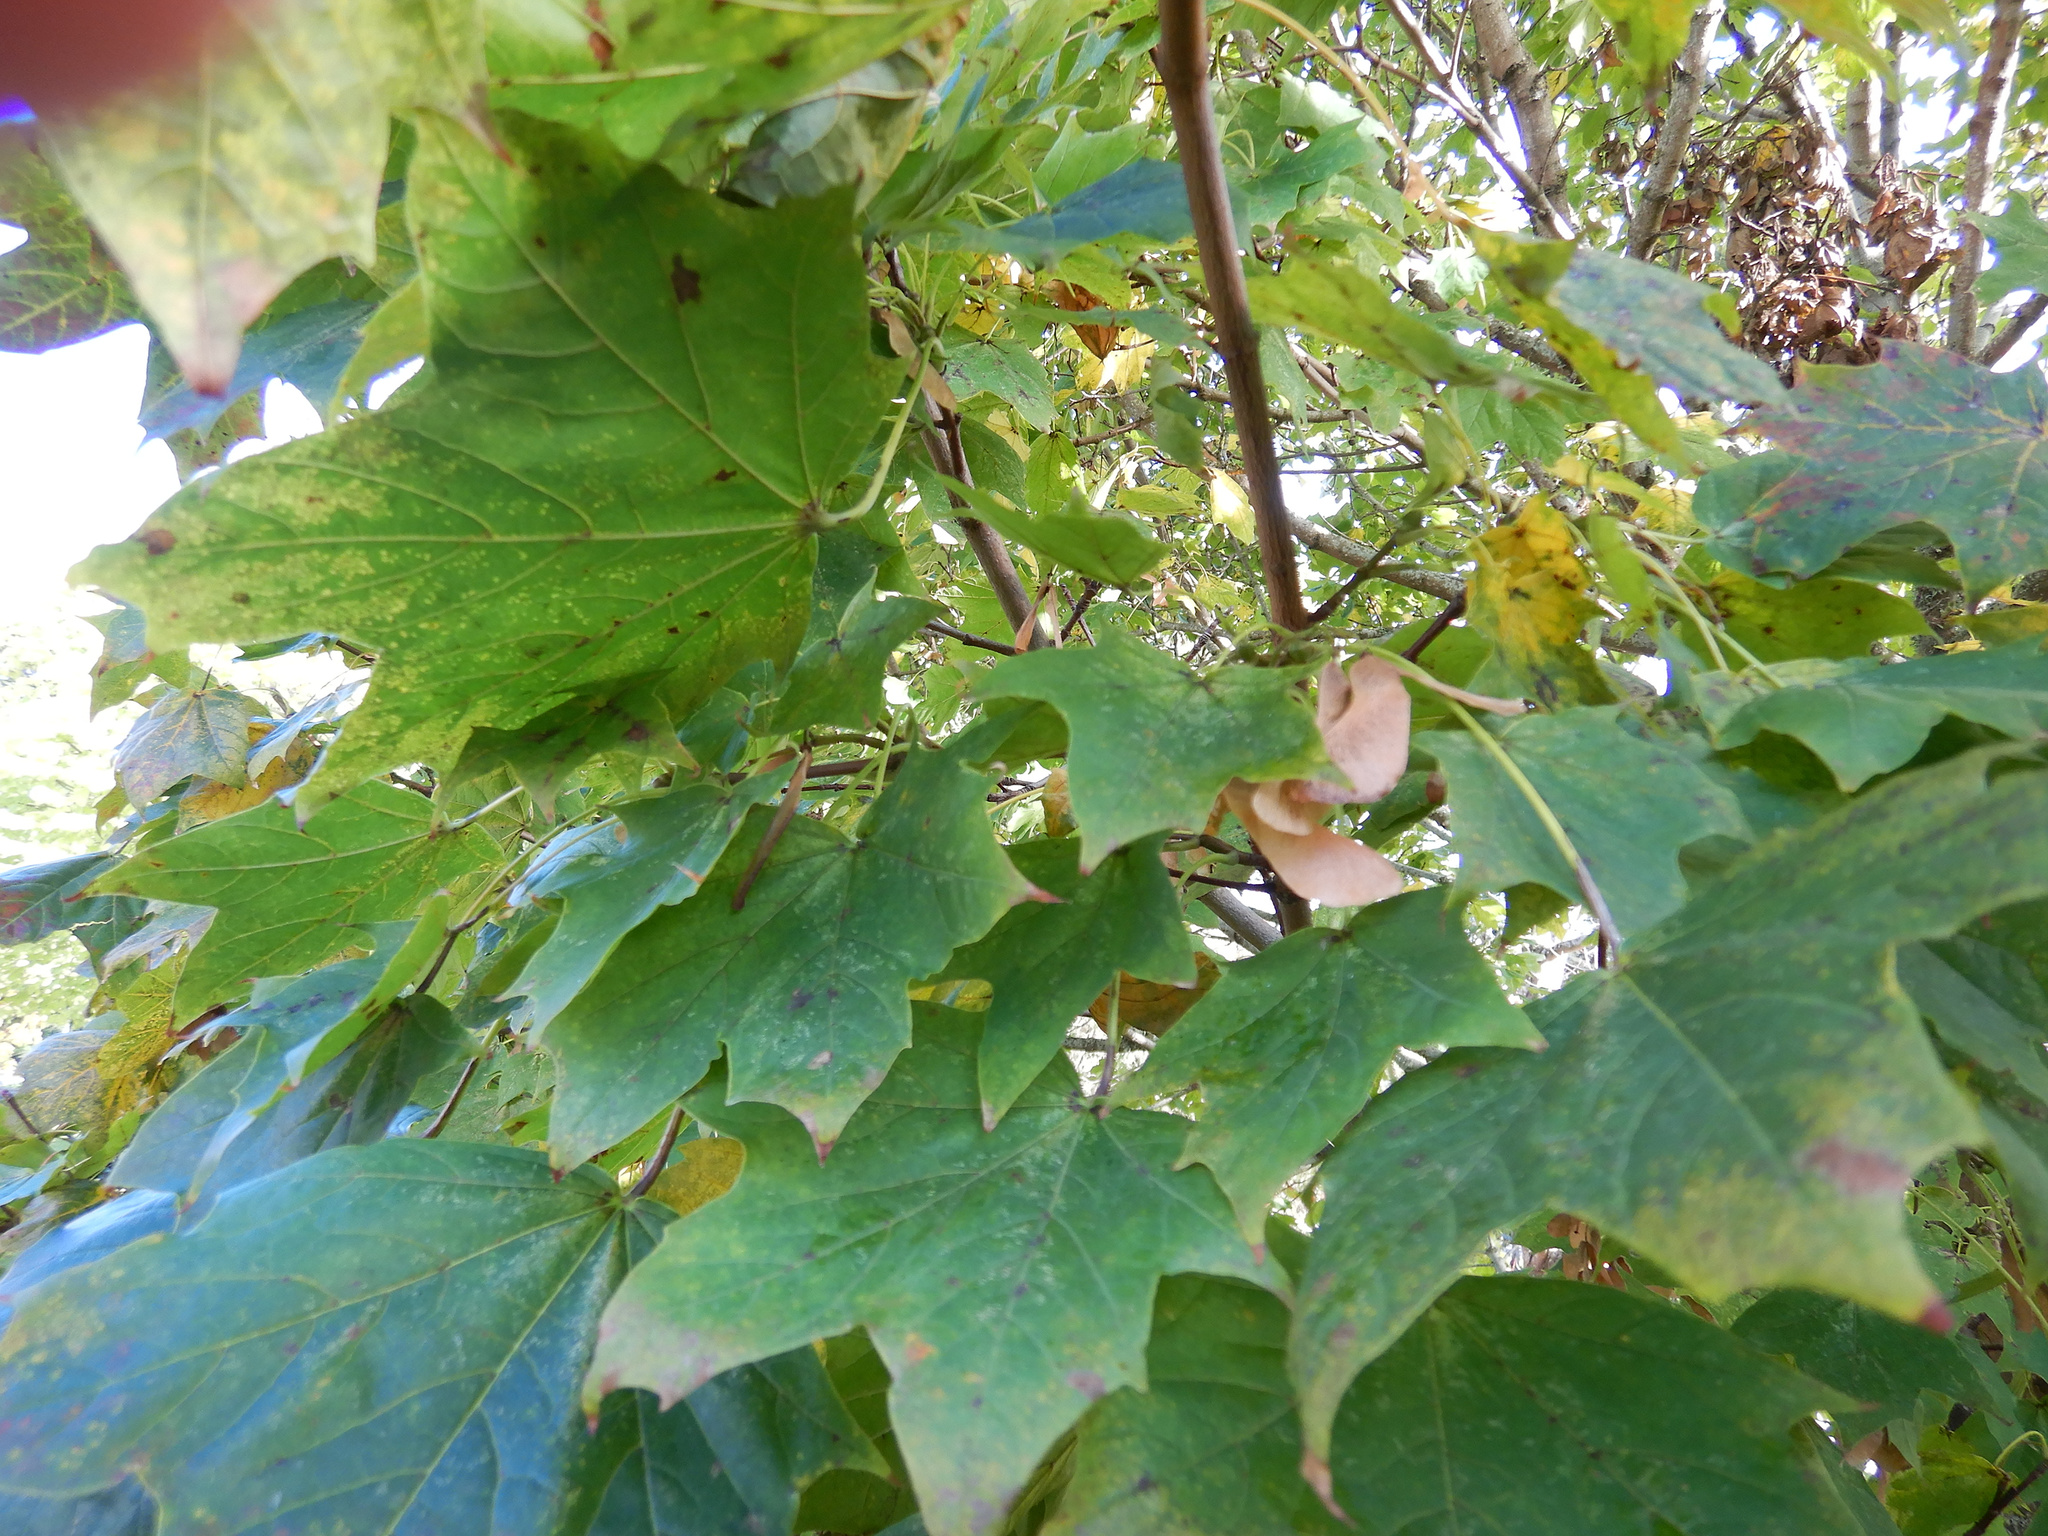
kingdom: Plantae
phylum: Tracheophyta
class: Magnoliopsida
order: Sapindales
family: Sapindaceae
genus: Acer
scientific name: Acer pseudoplatanus
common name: Sycamore
